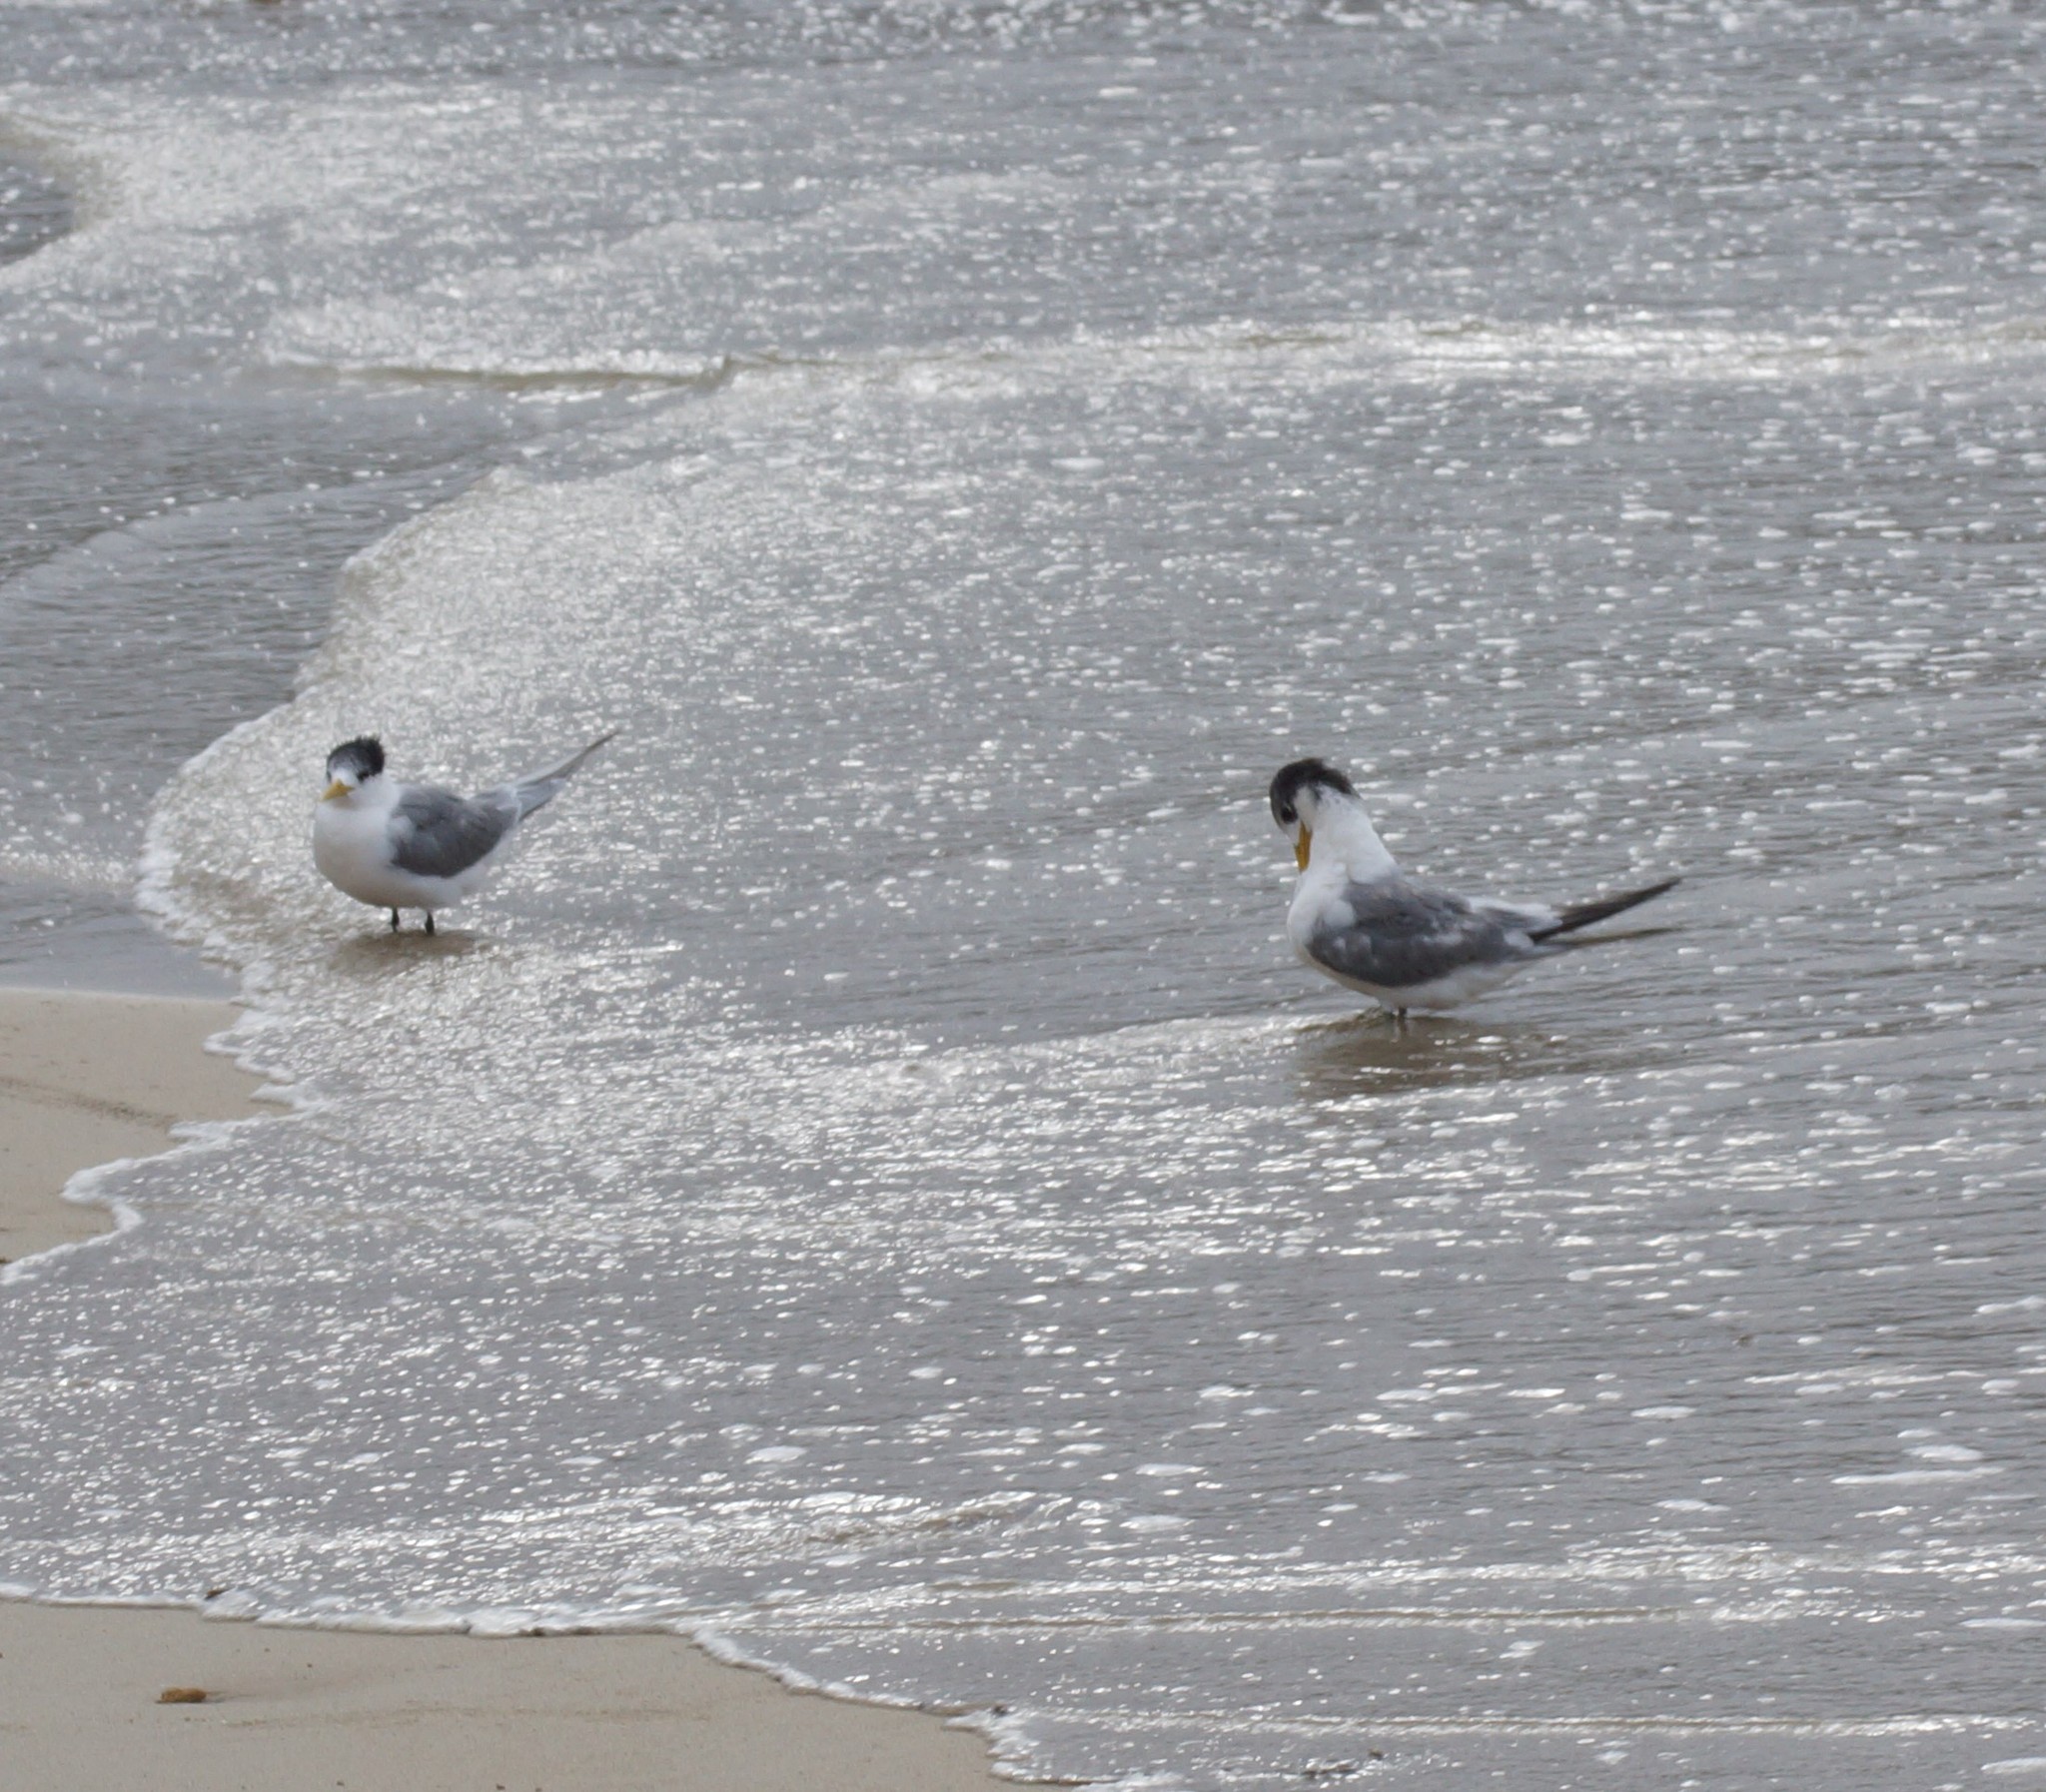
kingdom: Animalia
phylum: Chordata
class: Aves
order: Charadriiformes
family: Laridae
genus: Thalasseus
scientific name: Thalasseus bergii
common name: Greater crested tern
